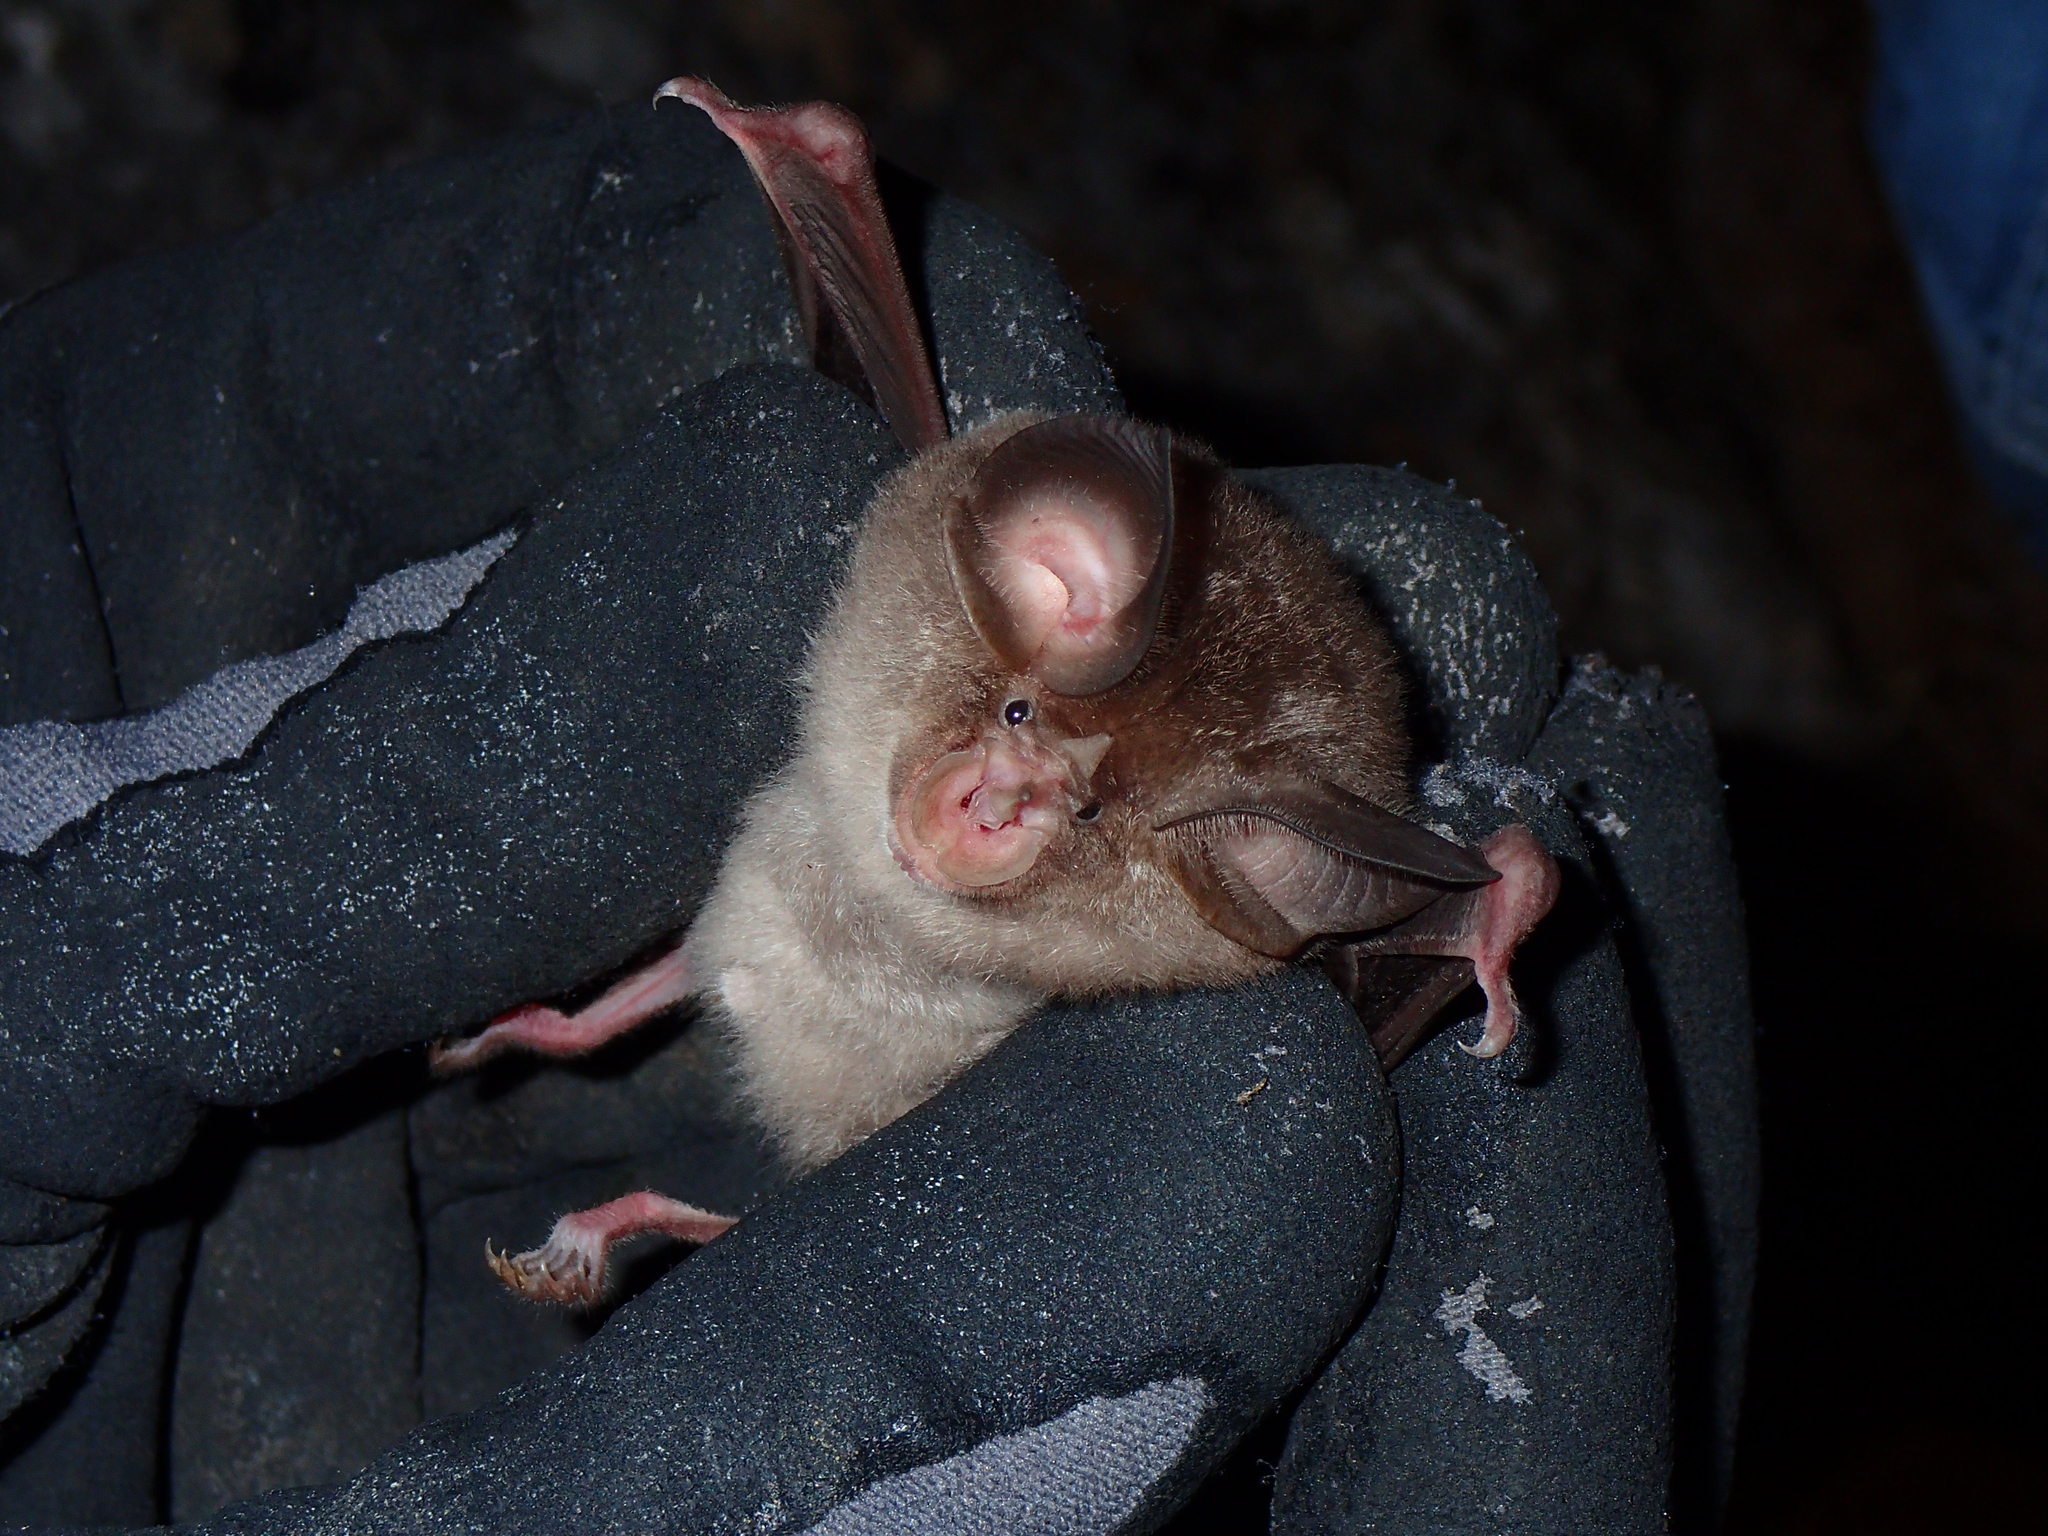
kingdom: Animalia
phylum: Chordata
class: Mammalia
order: Chiroptera
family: Rhinolophidae
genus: Rhinolophus
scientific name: Rhinolophus euryale
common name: Mediterranean horseshoe bat
